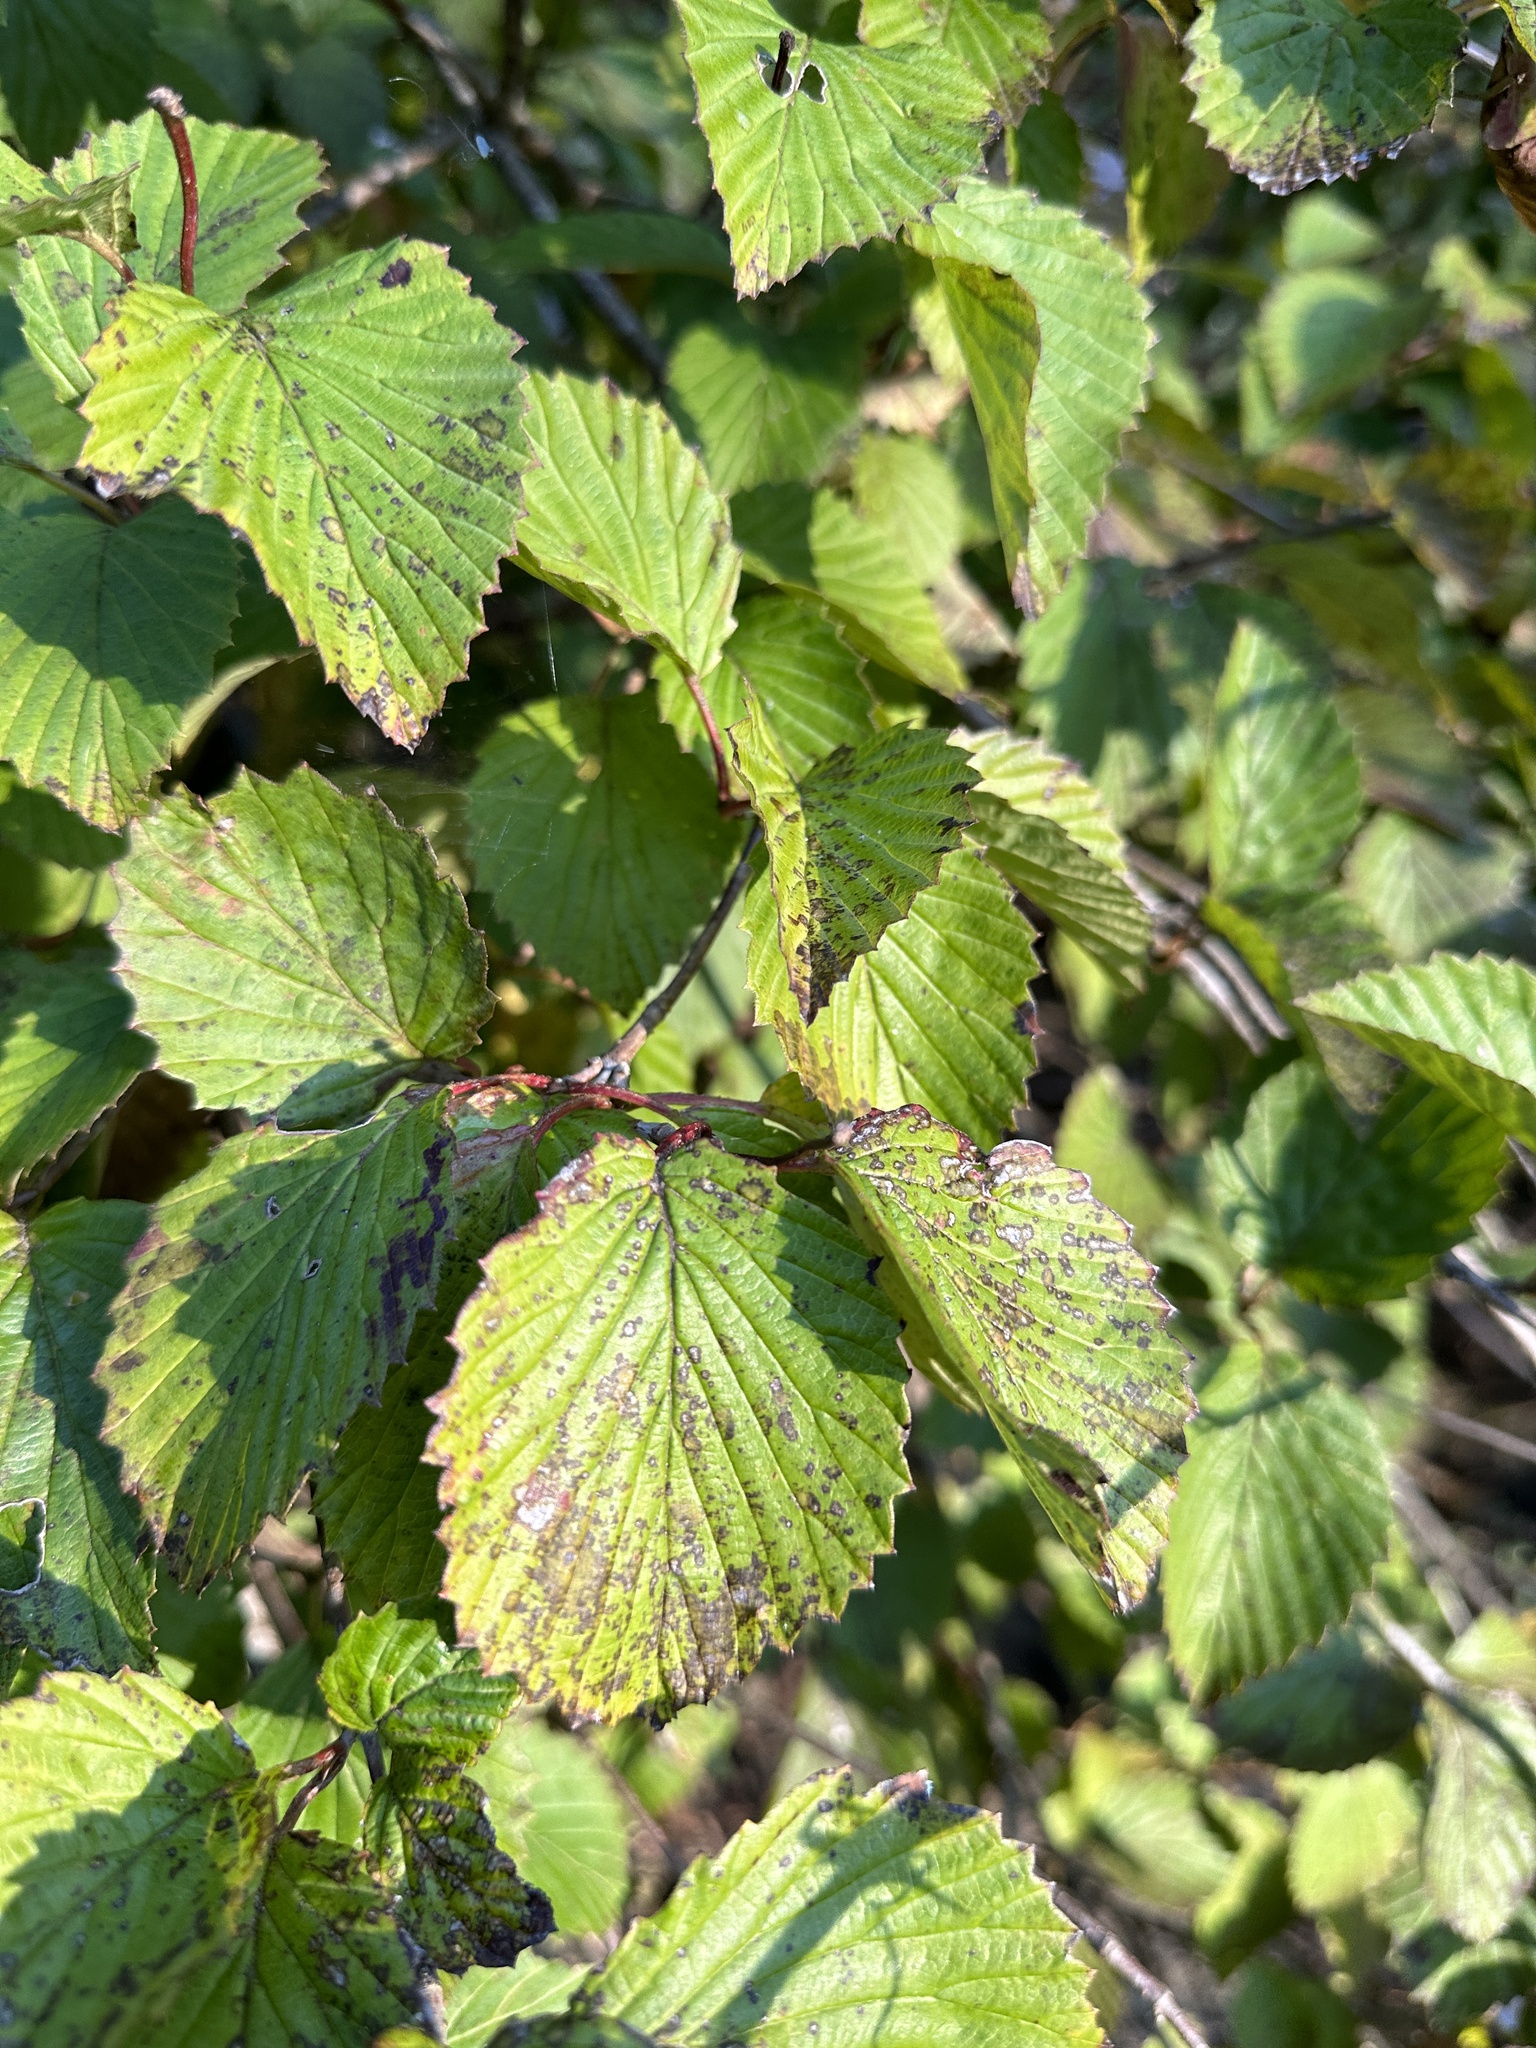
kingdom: Plantae
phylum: Tracheophyta
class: Magnoliopsida
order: Dipsacales
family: Viburnaceae
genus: Viburnum
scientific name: Viburnum alabamense
